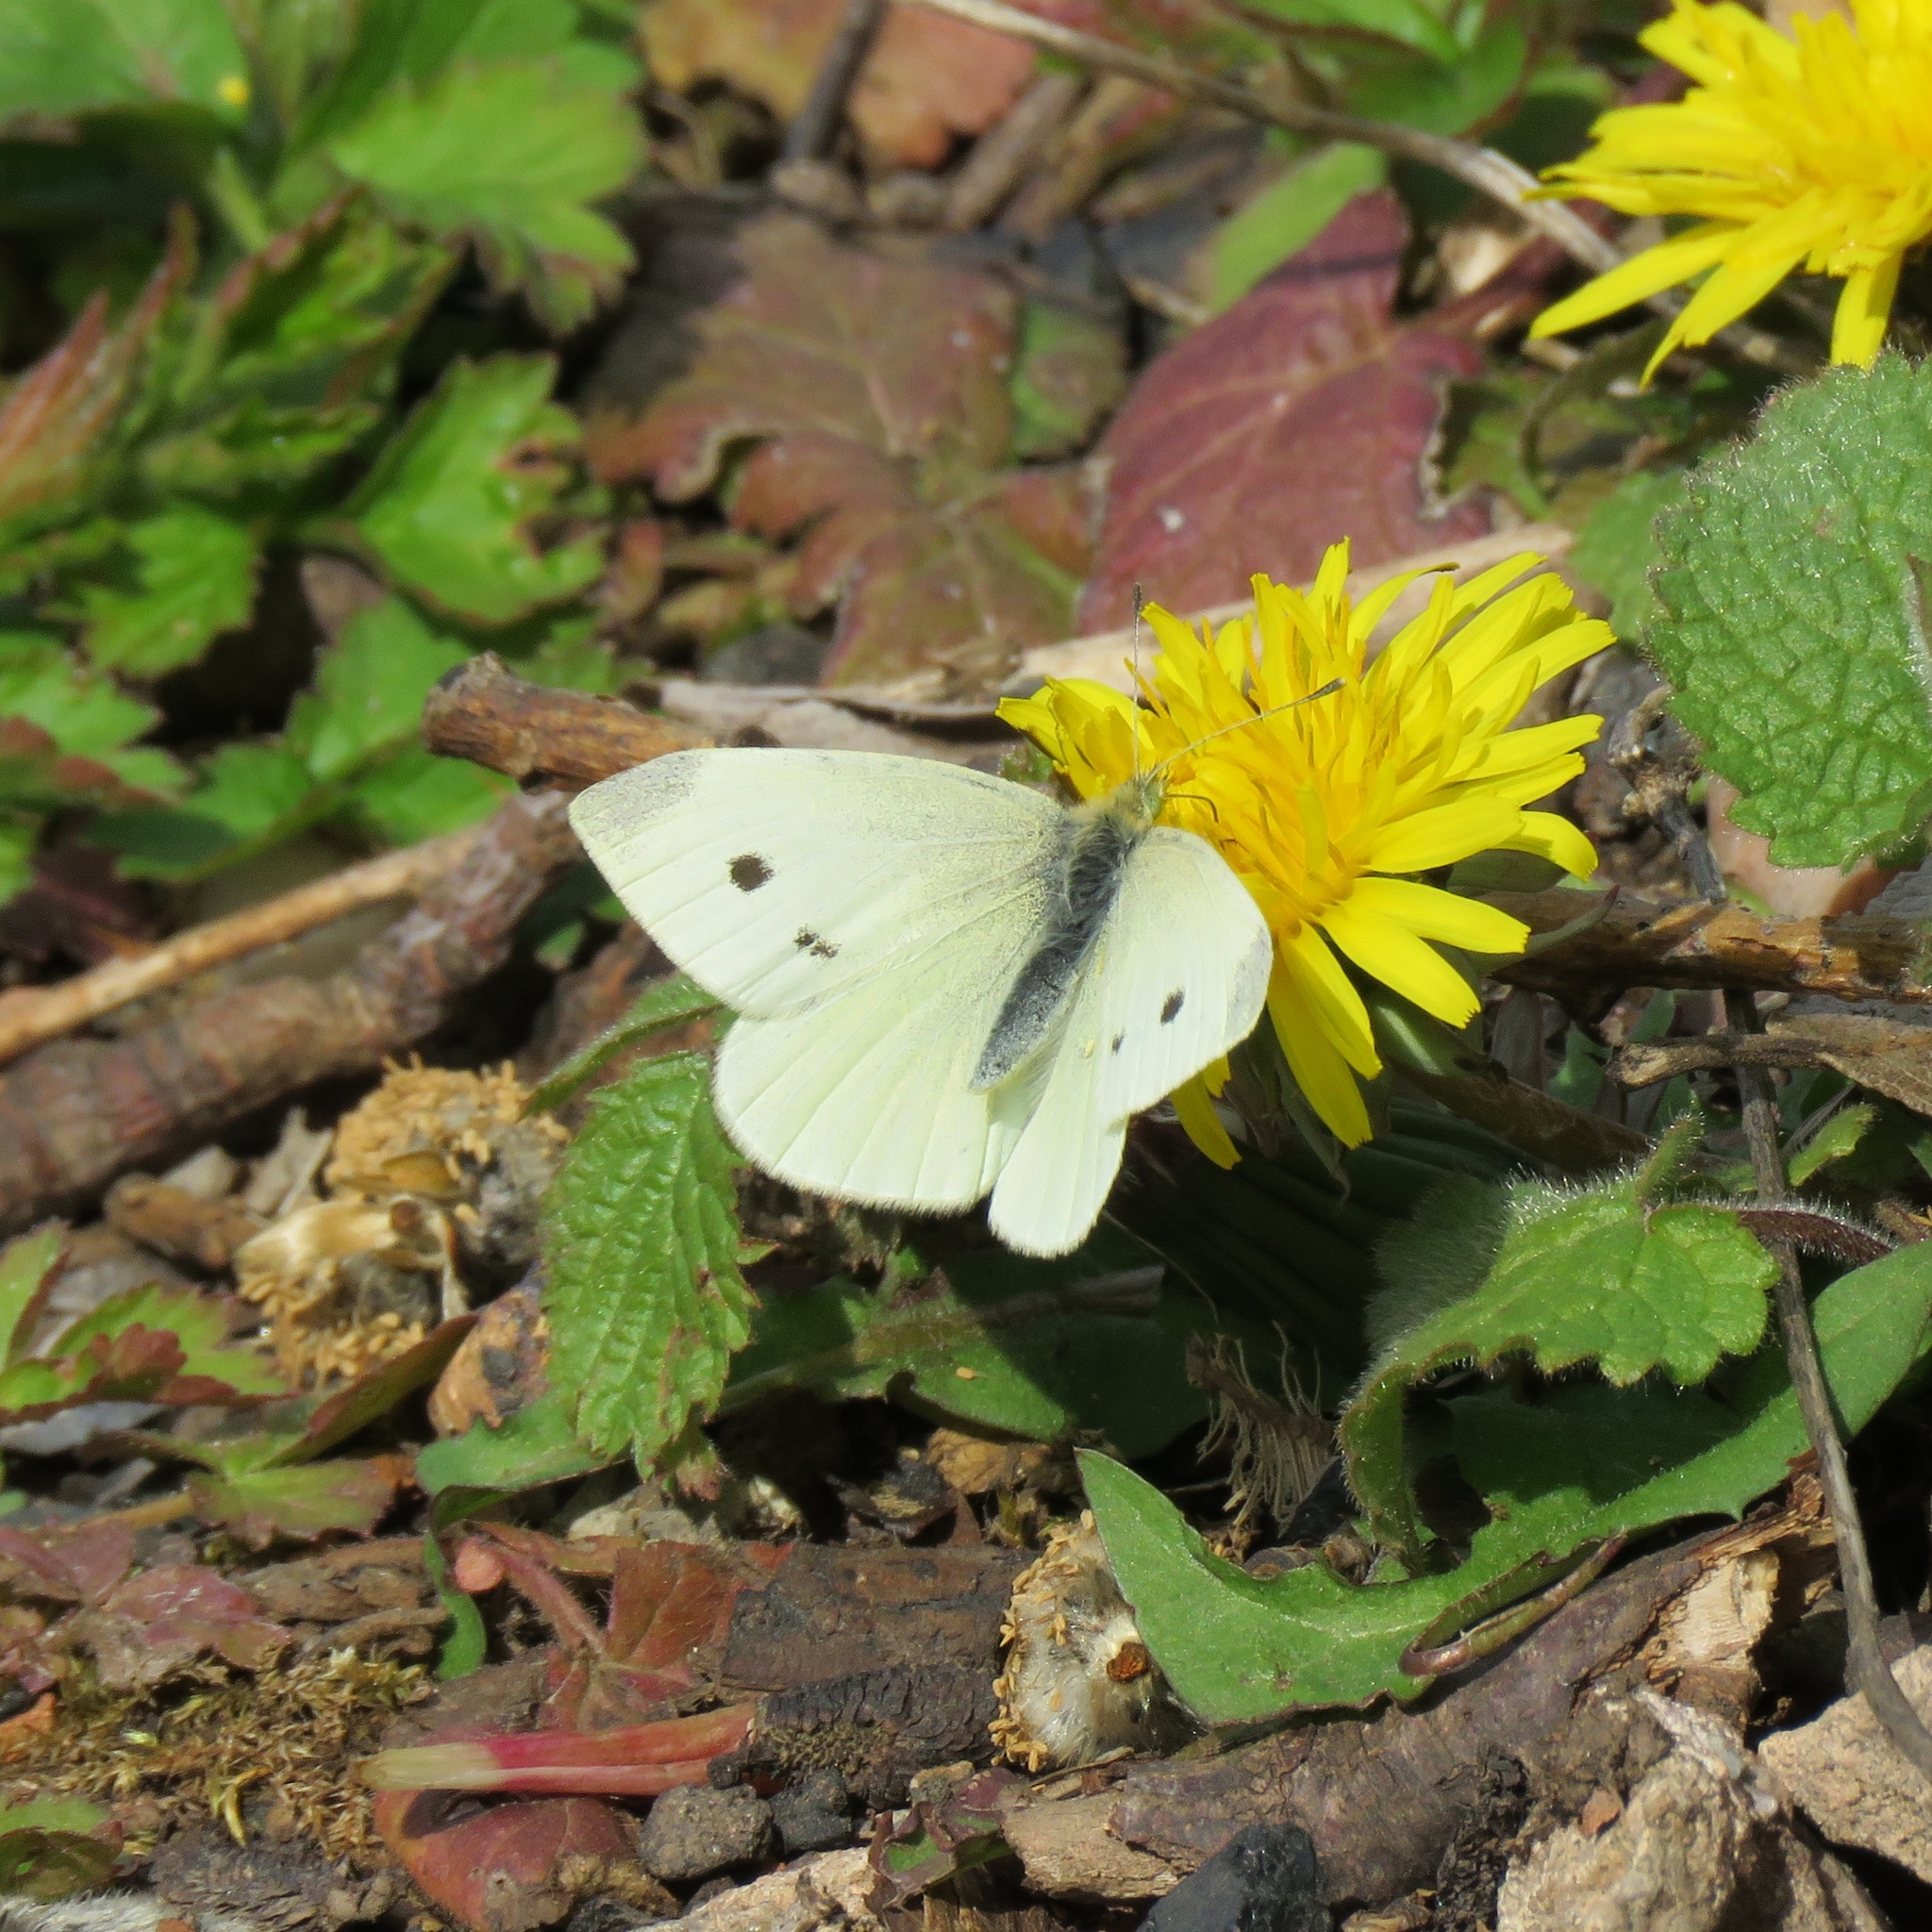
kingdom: Animalia
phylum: Arthropoda
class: Insecta
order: Lepidoptera
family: Pieridae
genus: Pieris
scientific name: Pieris rapae
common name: Small white
